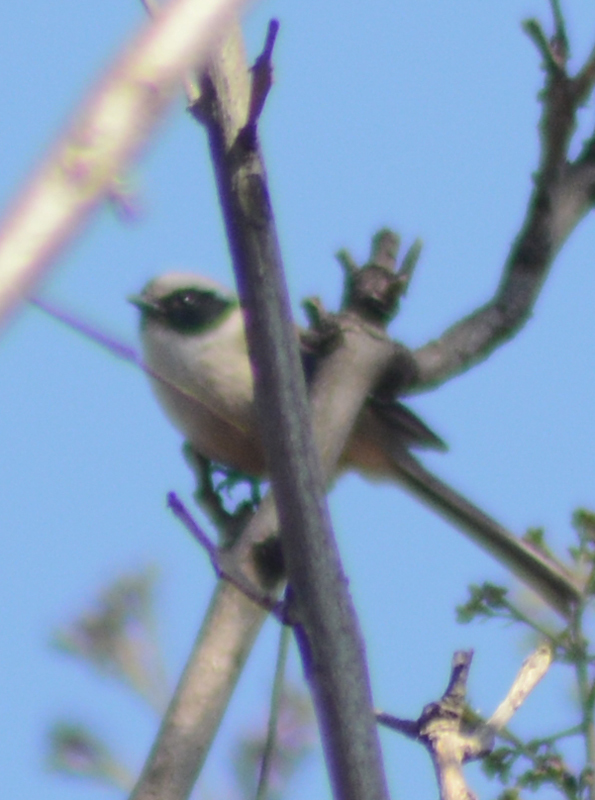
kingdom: Animalia
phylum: Chordata
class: Aves
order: Passeriformes
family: Aegithalidae
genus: Psaltriparus
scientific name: Psaltriparus minimus
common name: American bushtit
